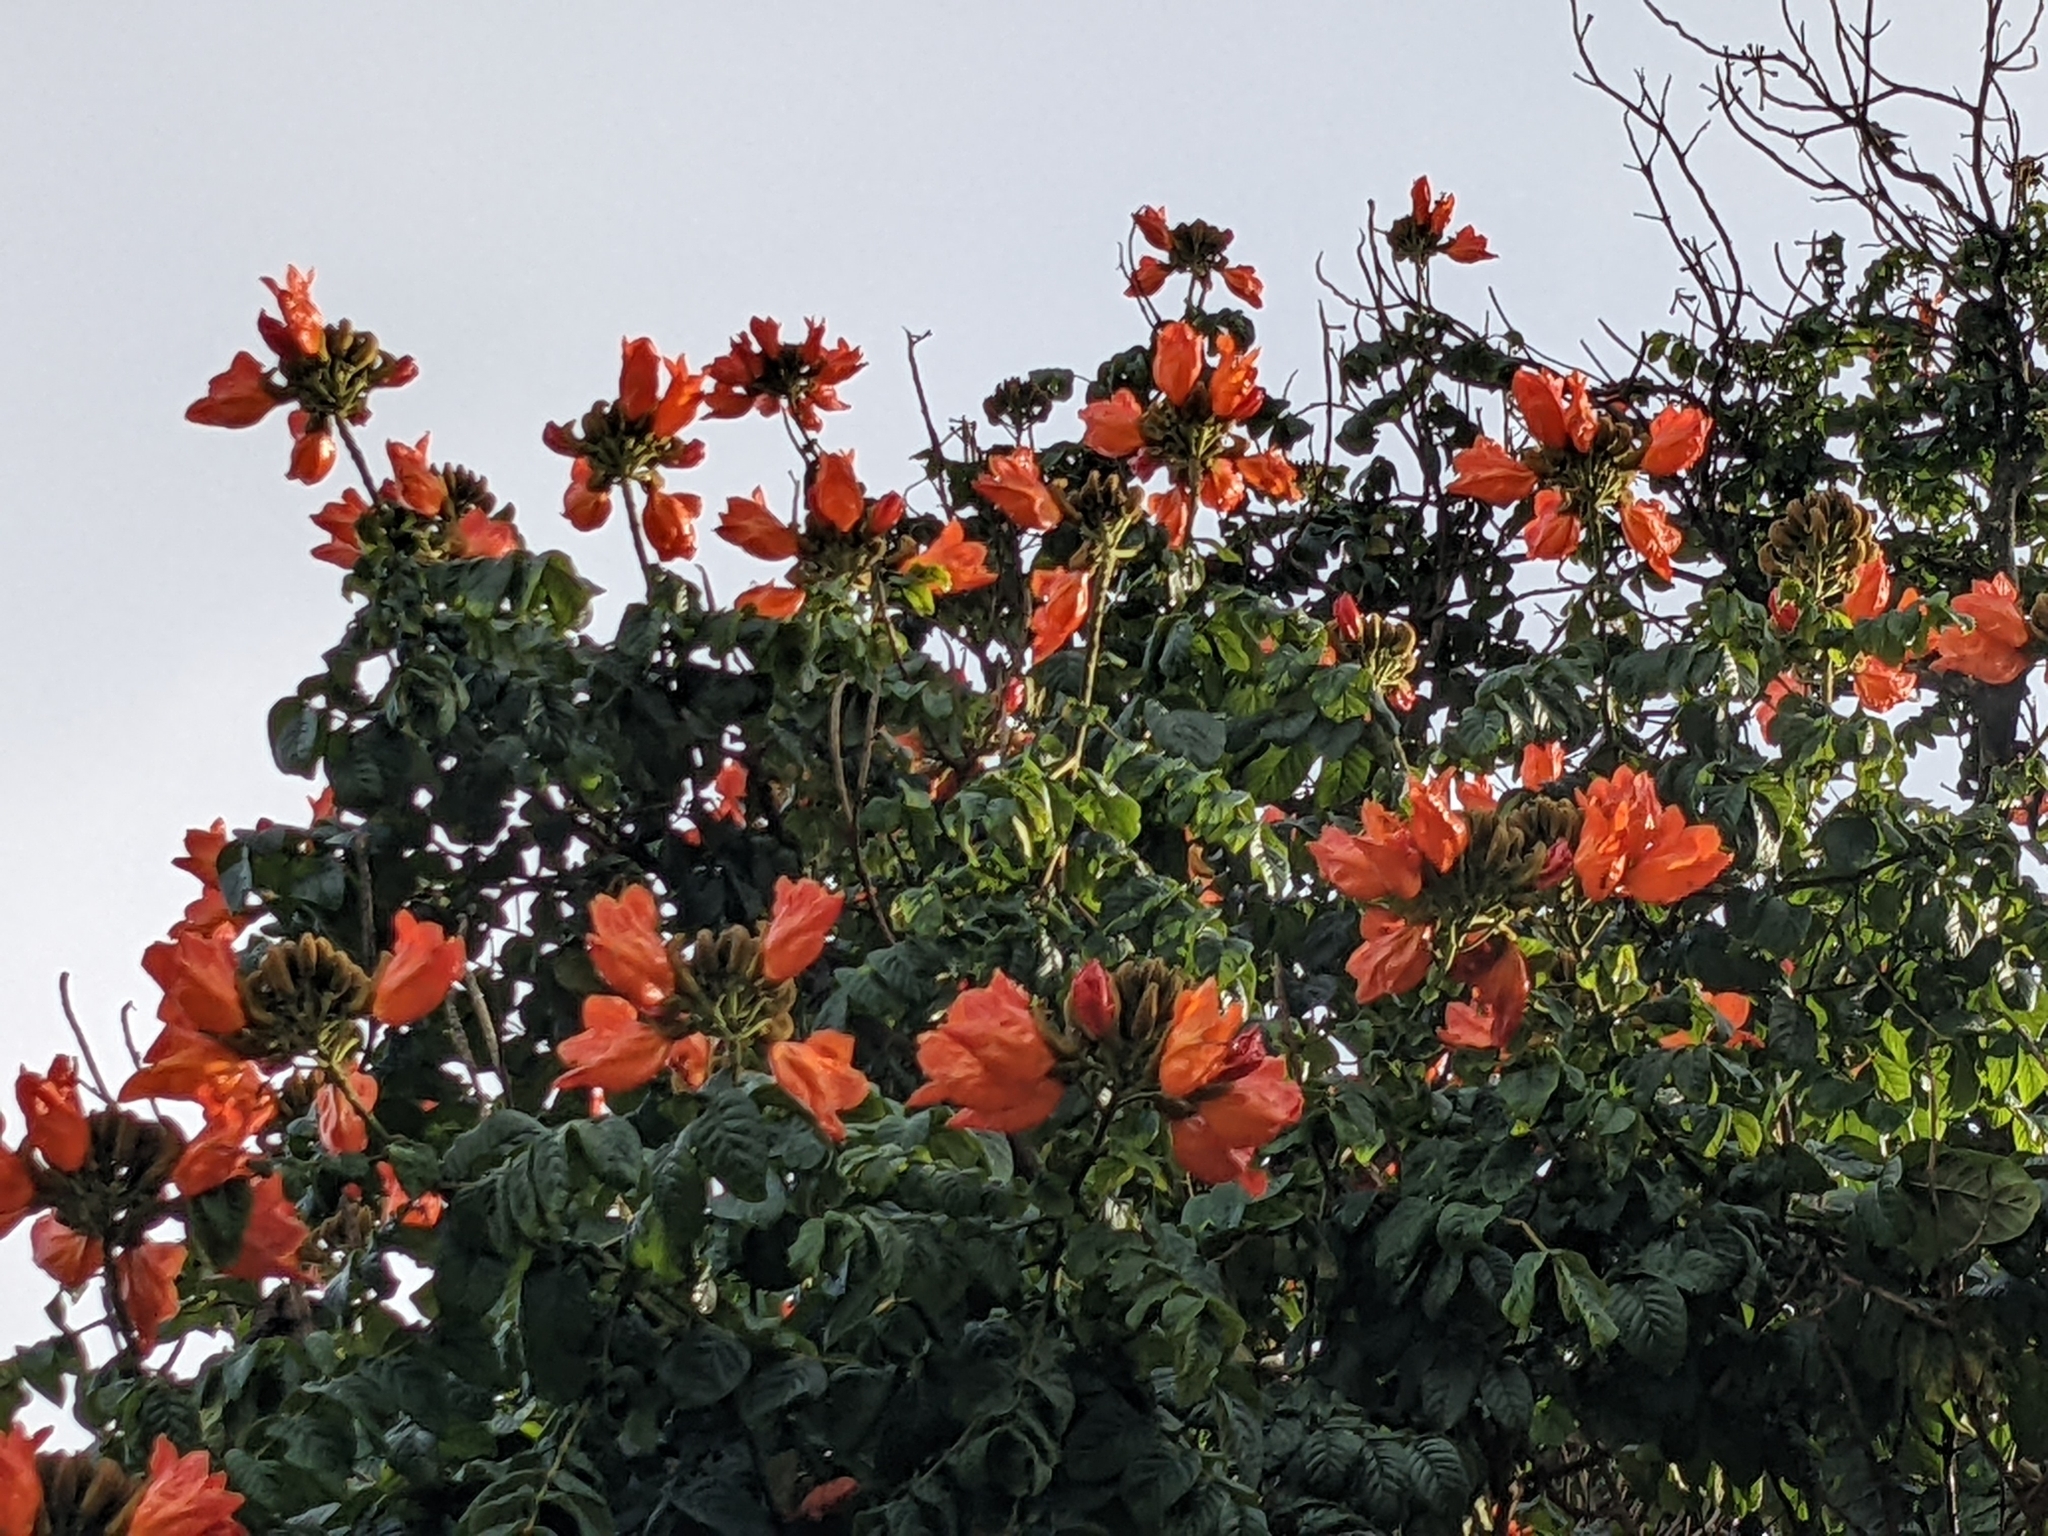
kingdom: Plantae
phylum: Tracheophyta
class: Magnoliopsida
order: Lamiales
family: Bignoniaceae
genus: Spathodea
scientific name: Spathodea campanulata
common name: African tuliptree
